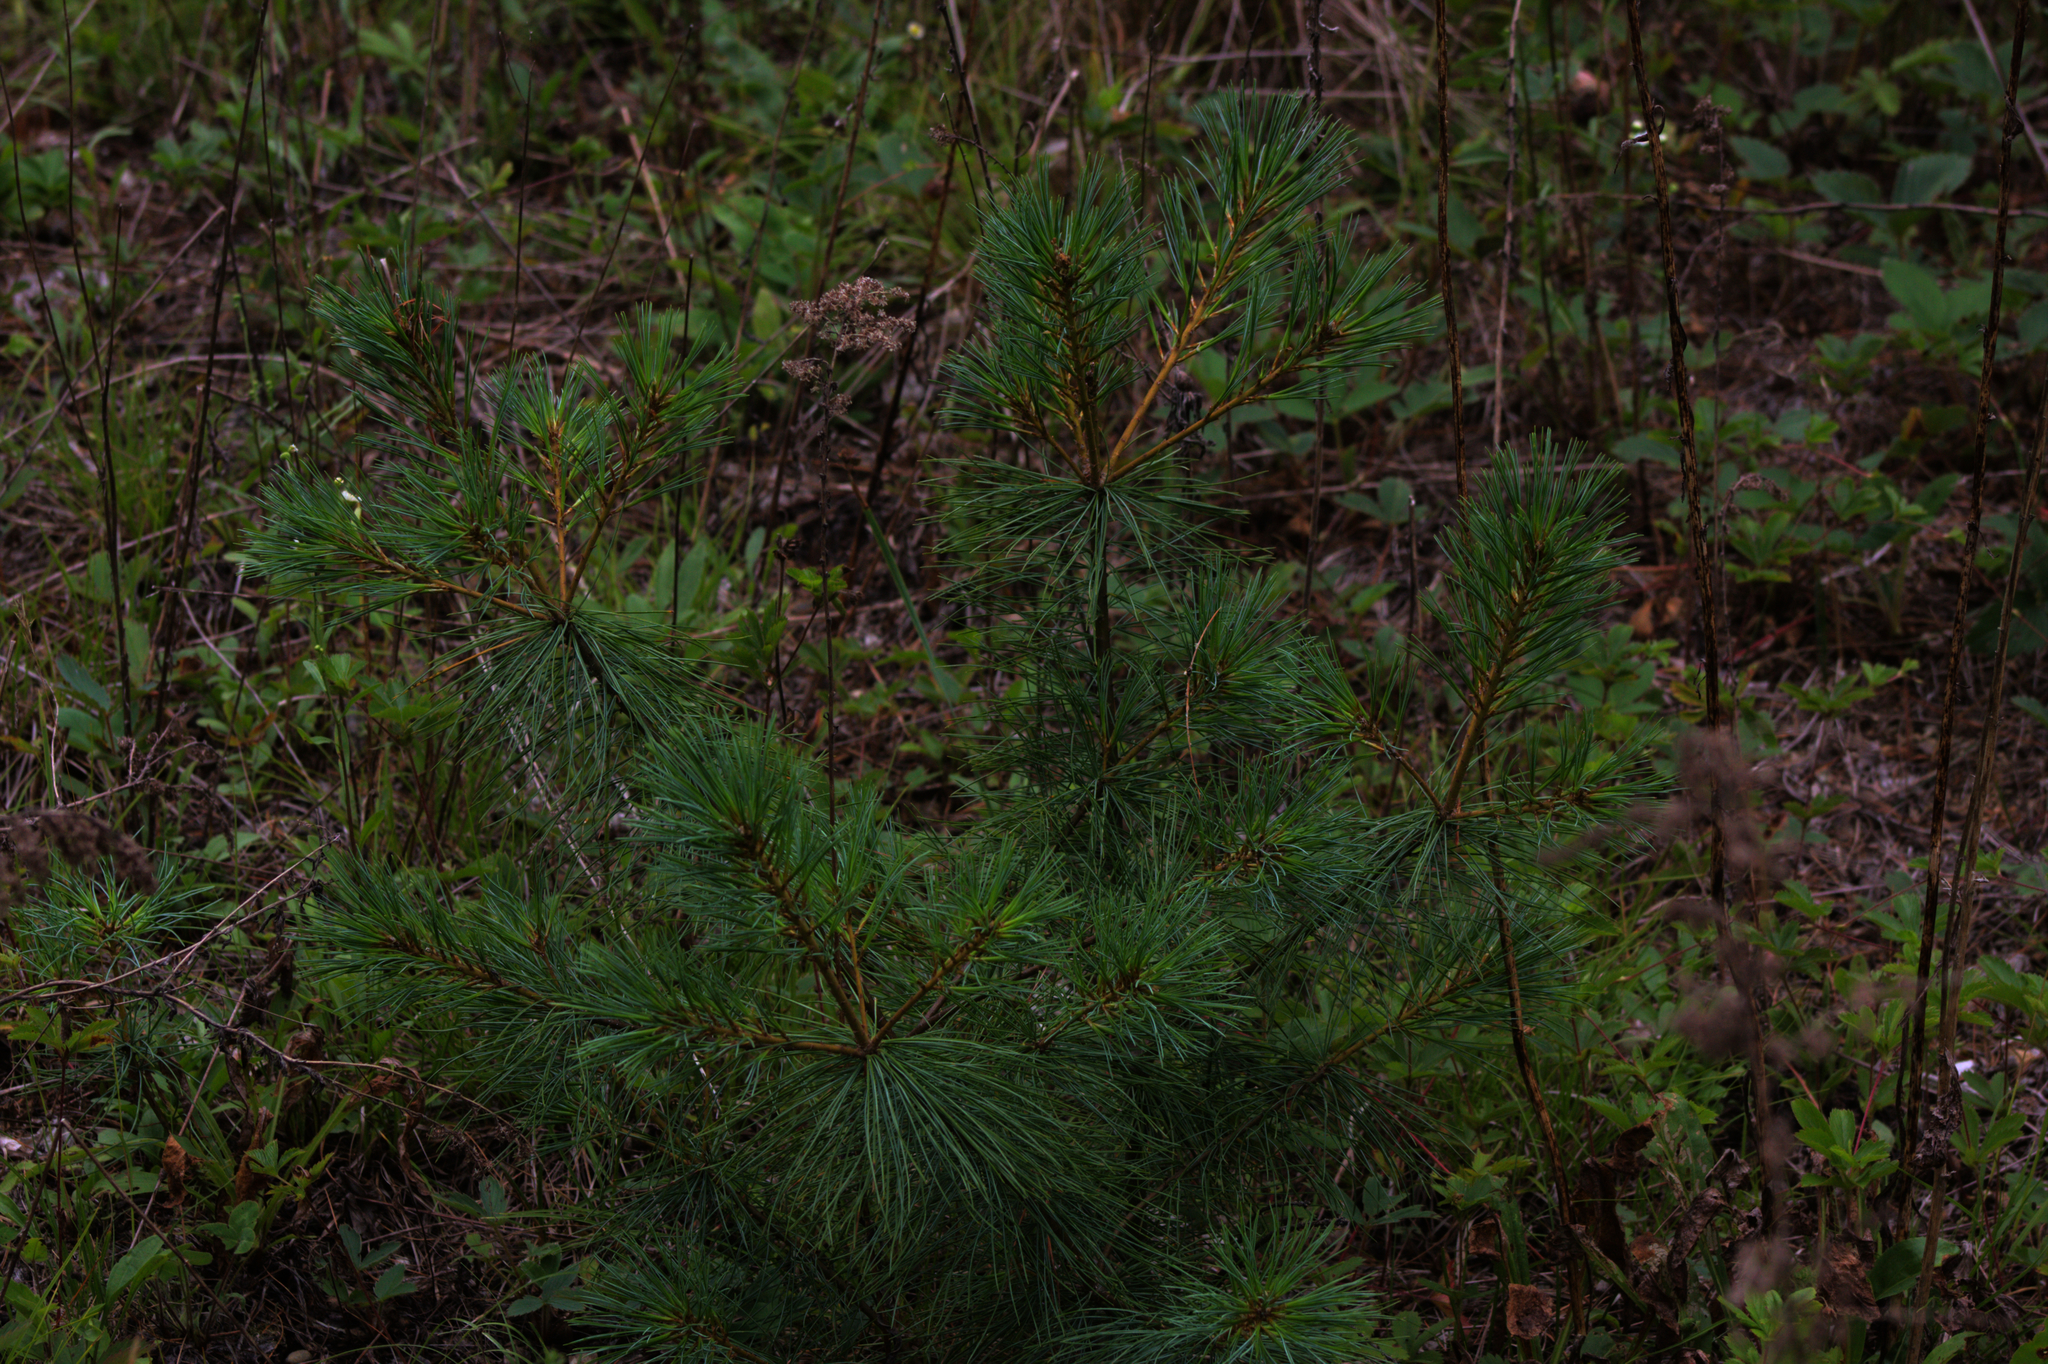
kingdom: Plantae
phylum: Tracheophyta
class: Pinopsida
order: Pinales
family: Pinaceae
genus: Pinus
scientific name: Pinus strobus
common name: Weymouth pine
